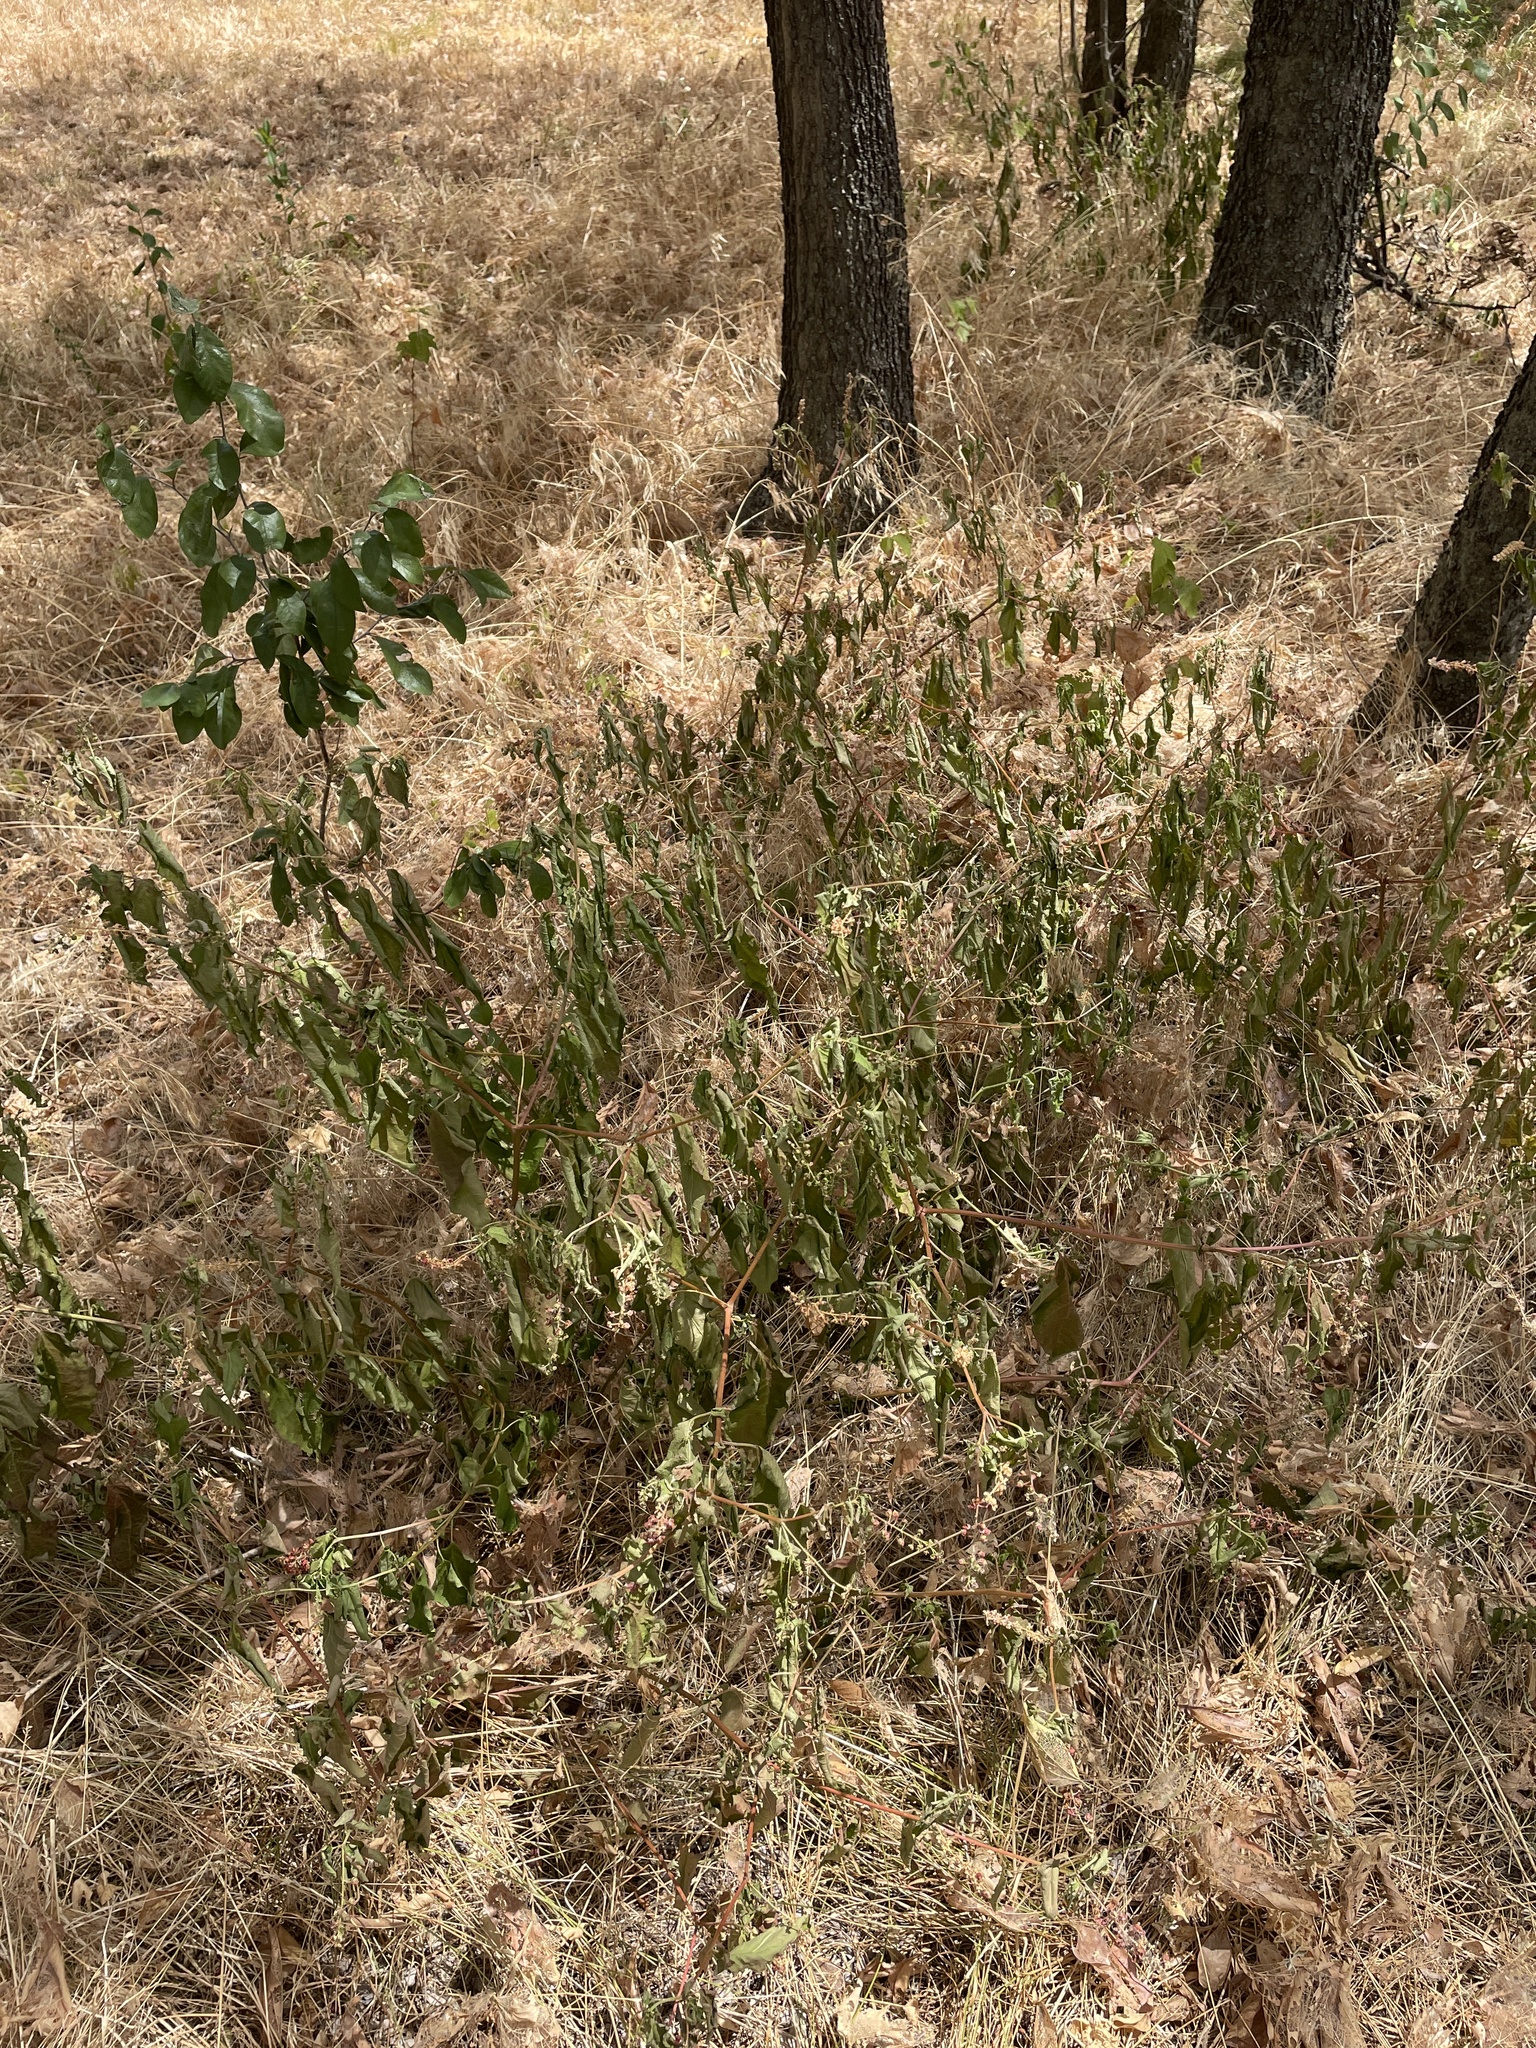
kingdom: Plantae
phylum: Tracheophyta
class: Magnoliopsida
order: Caryophyllales
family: Phytolaccaceae
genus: Rivina
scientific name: Rivina humilis
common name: Rougeplant
